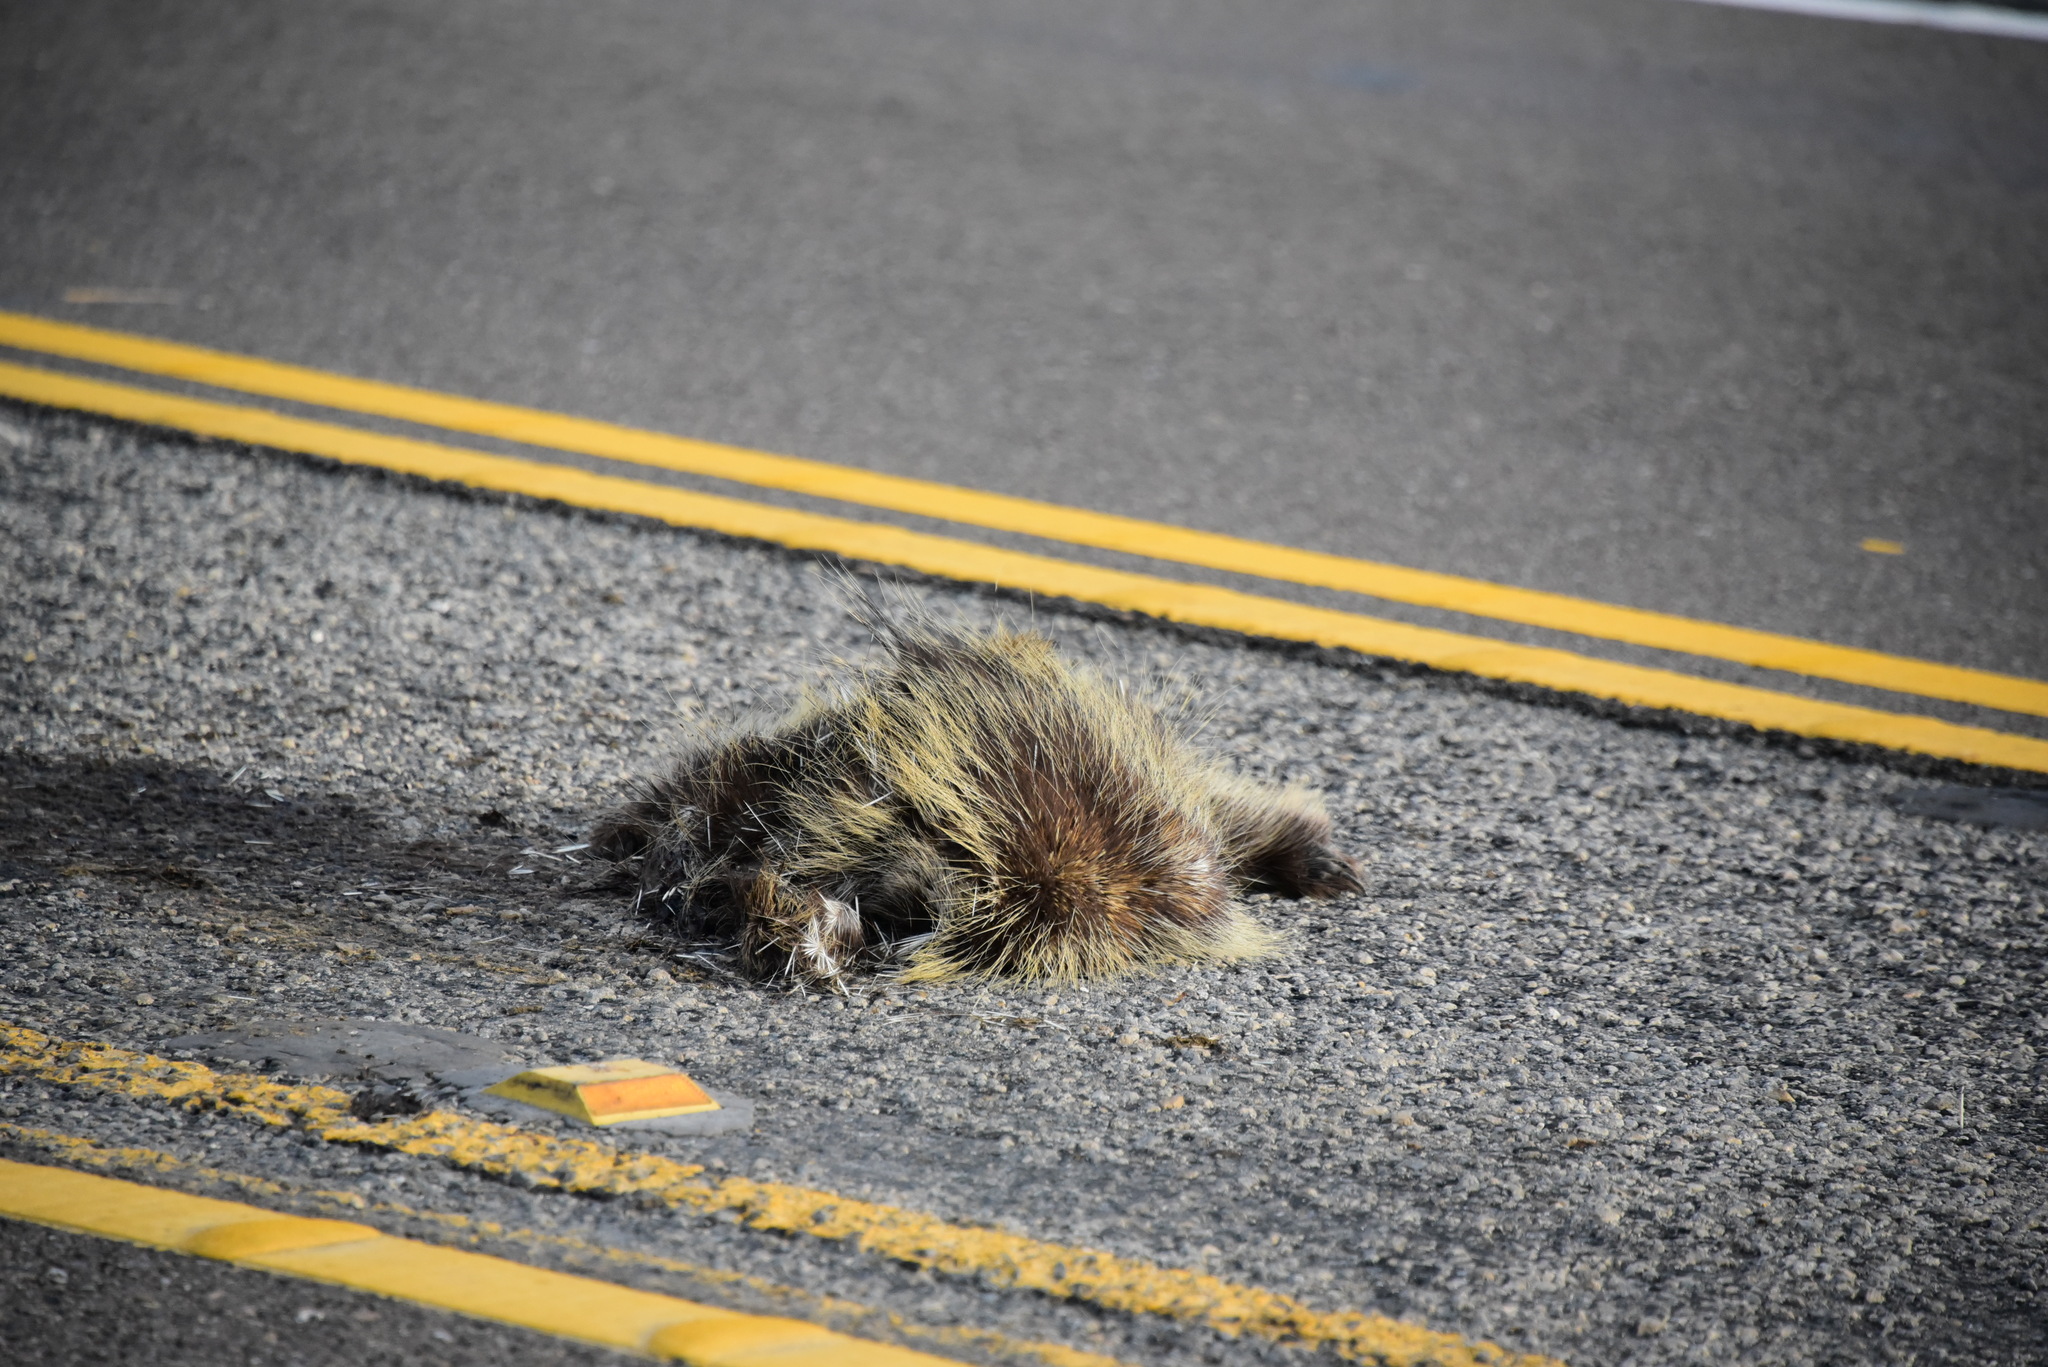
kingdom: Animalia
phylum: Chordata
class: Mammalia
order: Rodentia
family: Erethizontidae
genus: Erethizon
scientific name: Erethizon dorsatus
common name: North american porcupine
